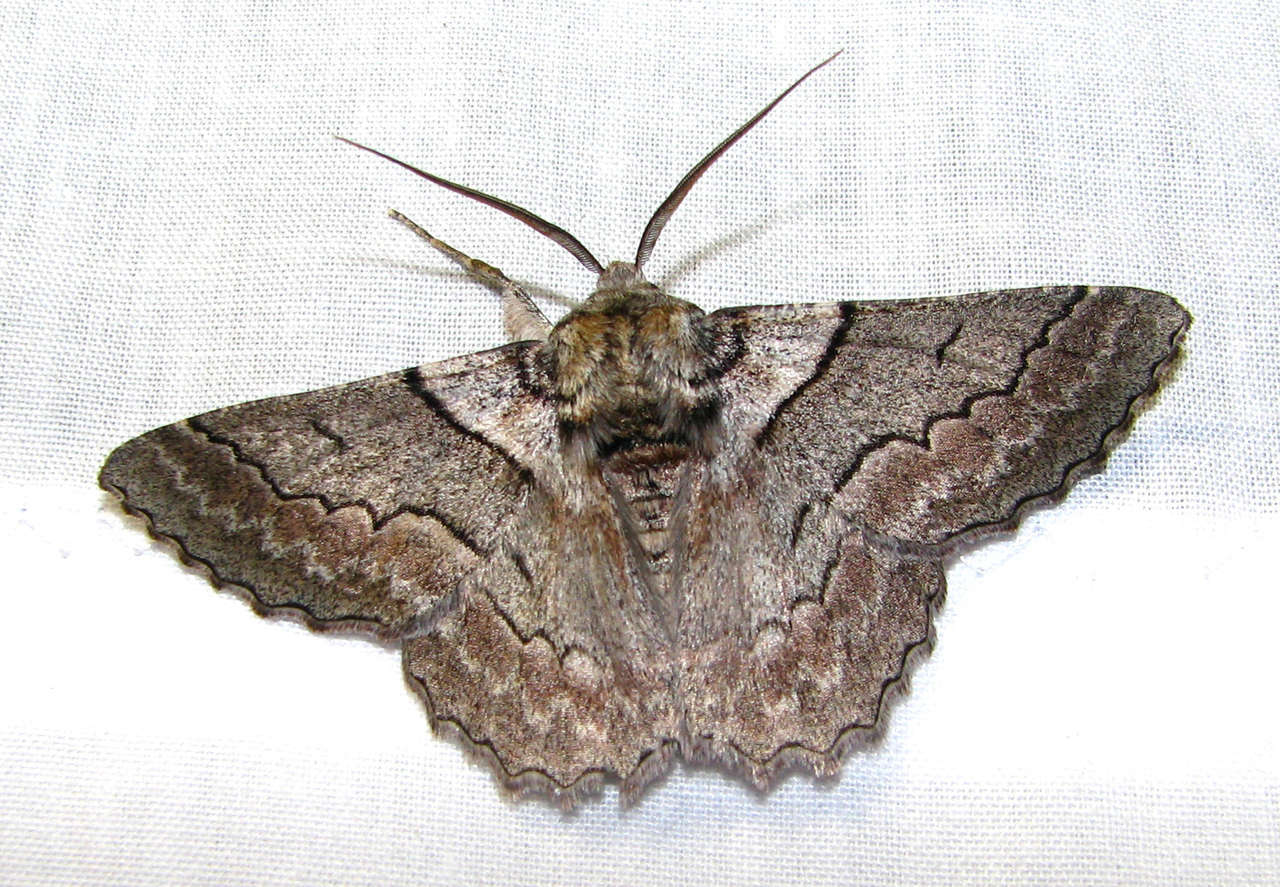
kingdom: Animalia
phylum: Arthropoda
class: Insecta
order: Lepidoptera
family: Geometridae
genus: Hypobapta
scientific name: Hypobapta tachyhalotaria
